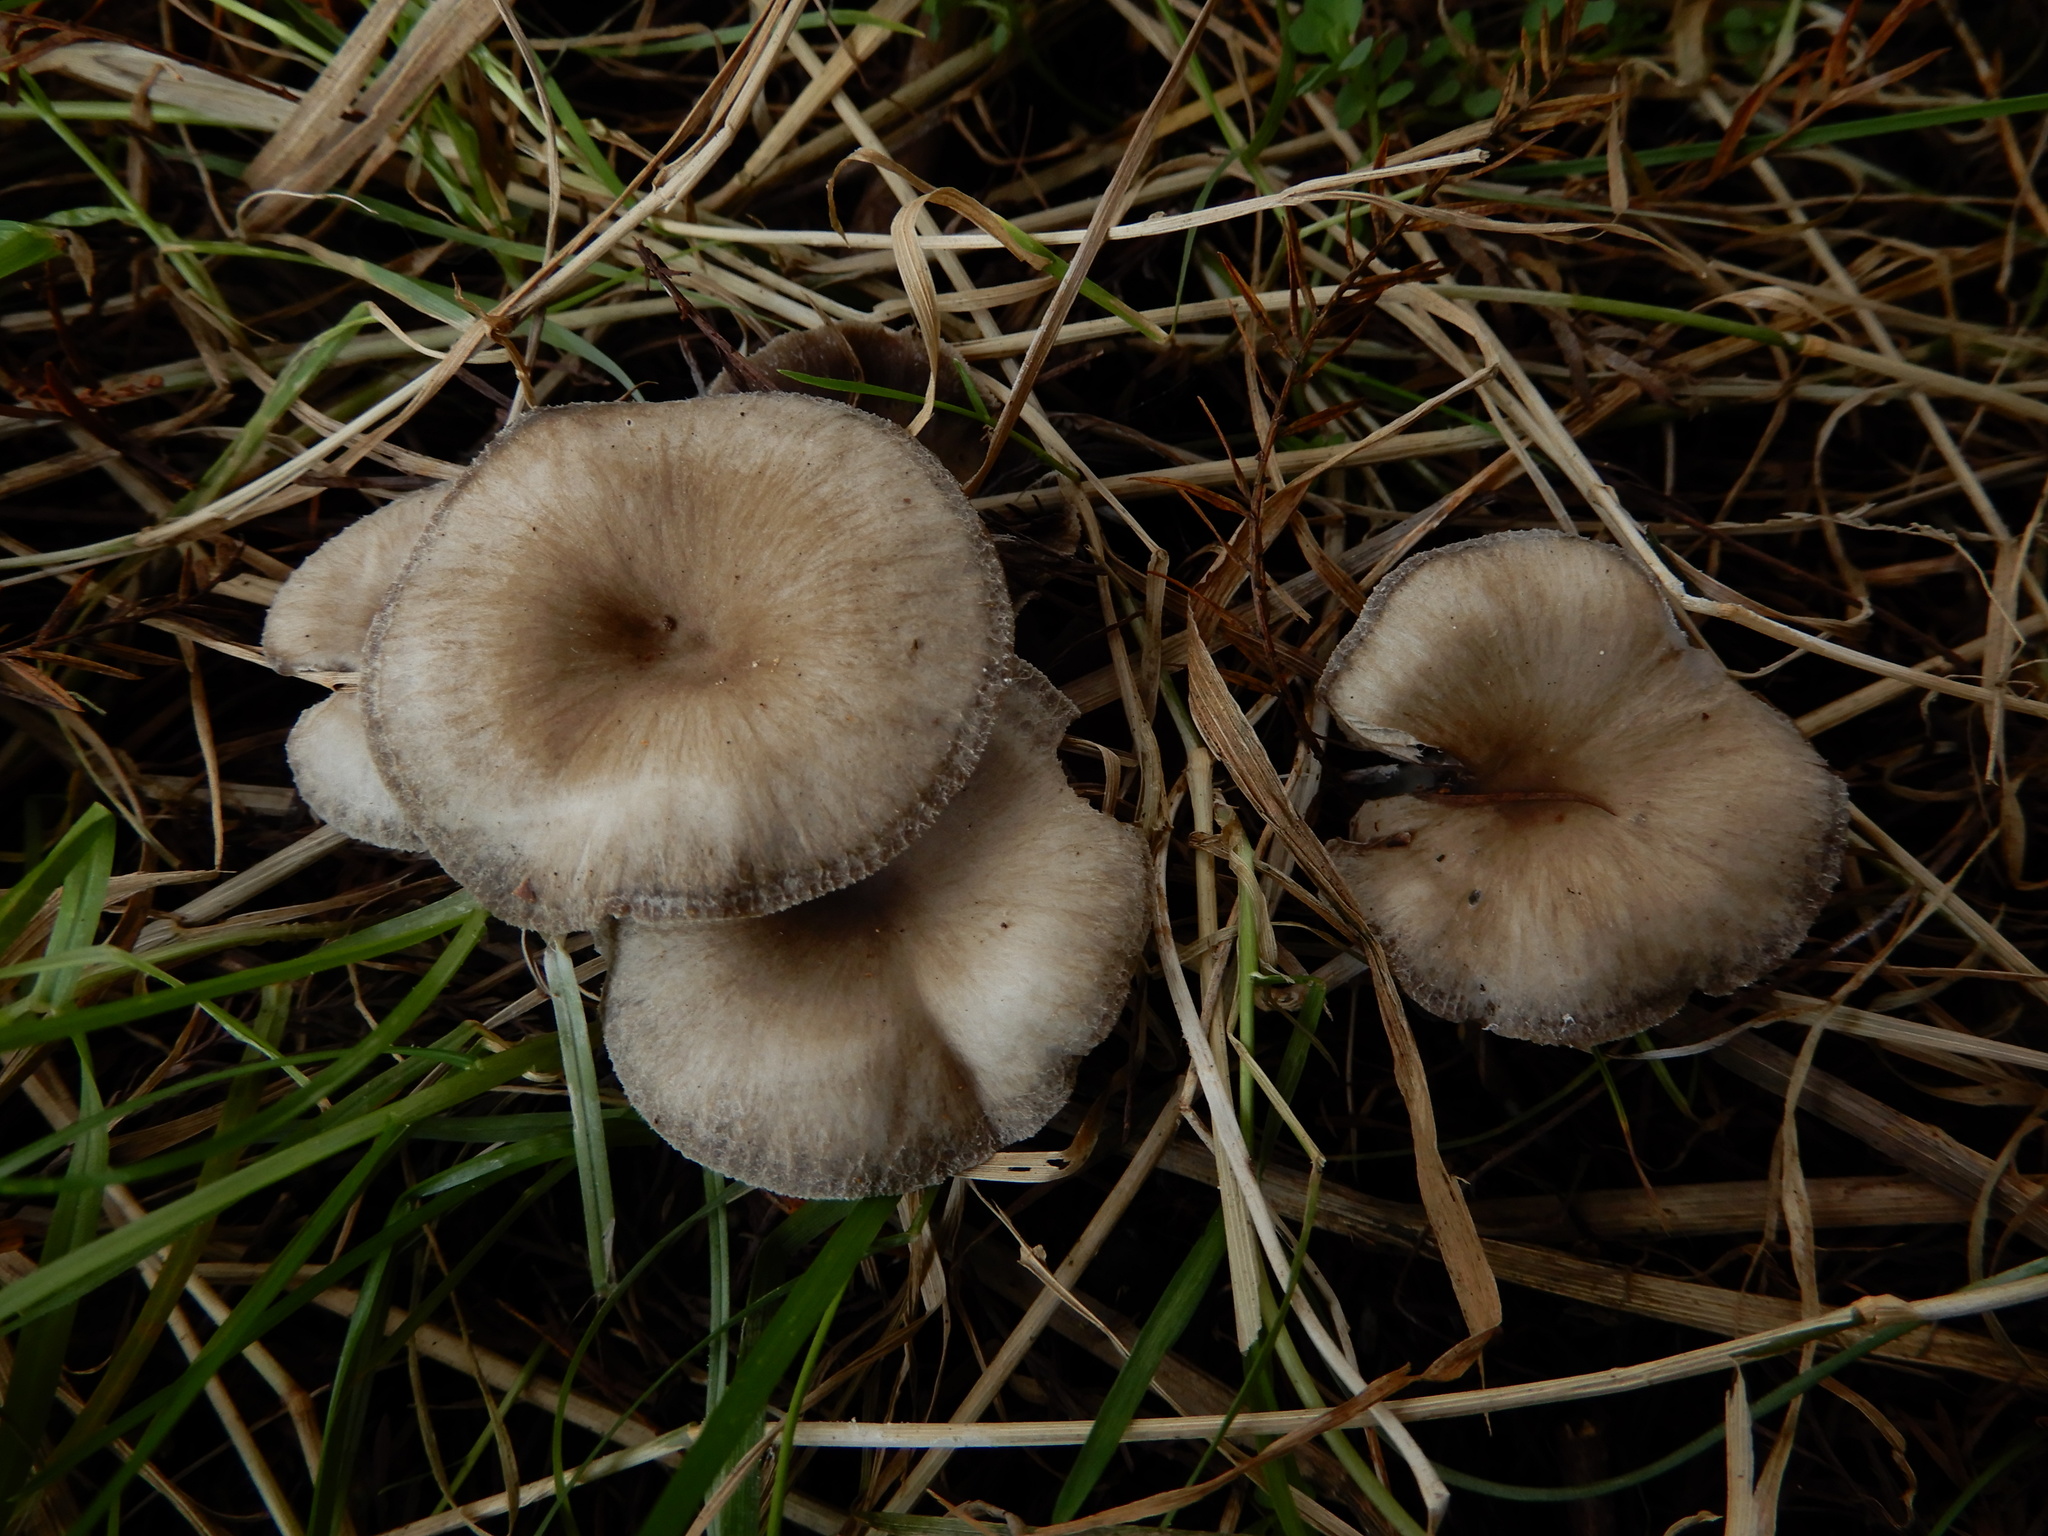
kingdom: Fungi
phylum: Basidiomycota
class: Agaricomycetes
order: Agaricales
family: Tricholomataceae
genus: Pseudolyophyllum
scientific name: Pseudolyophyllum
